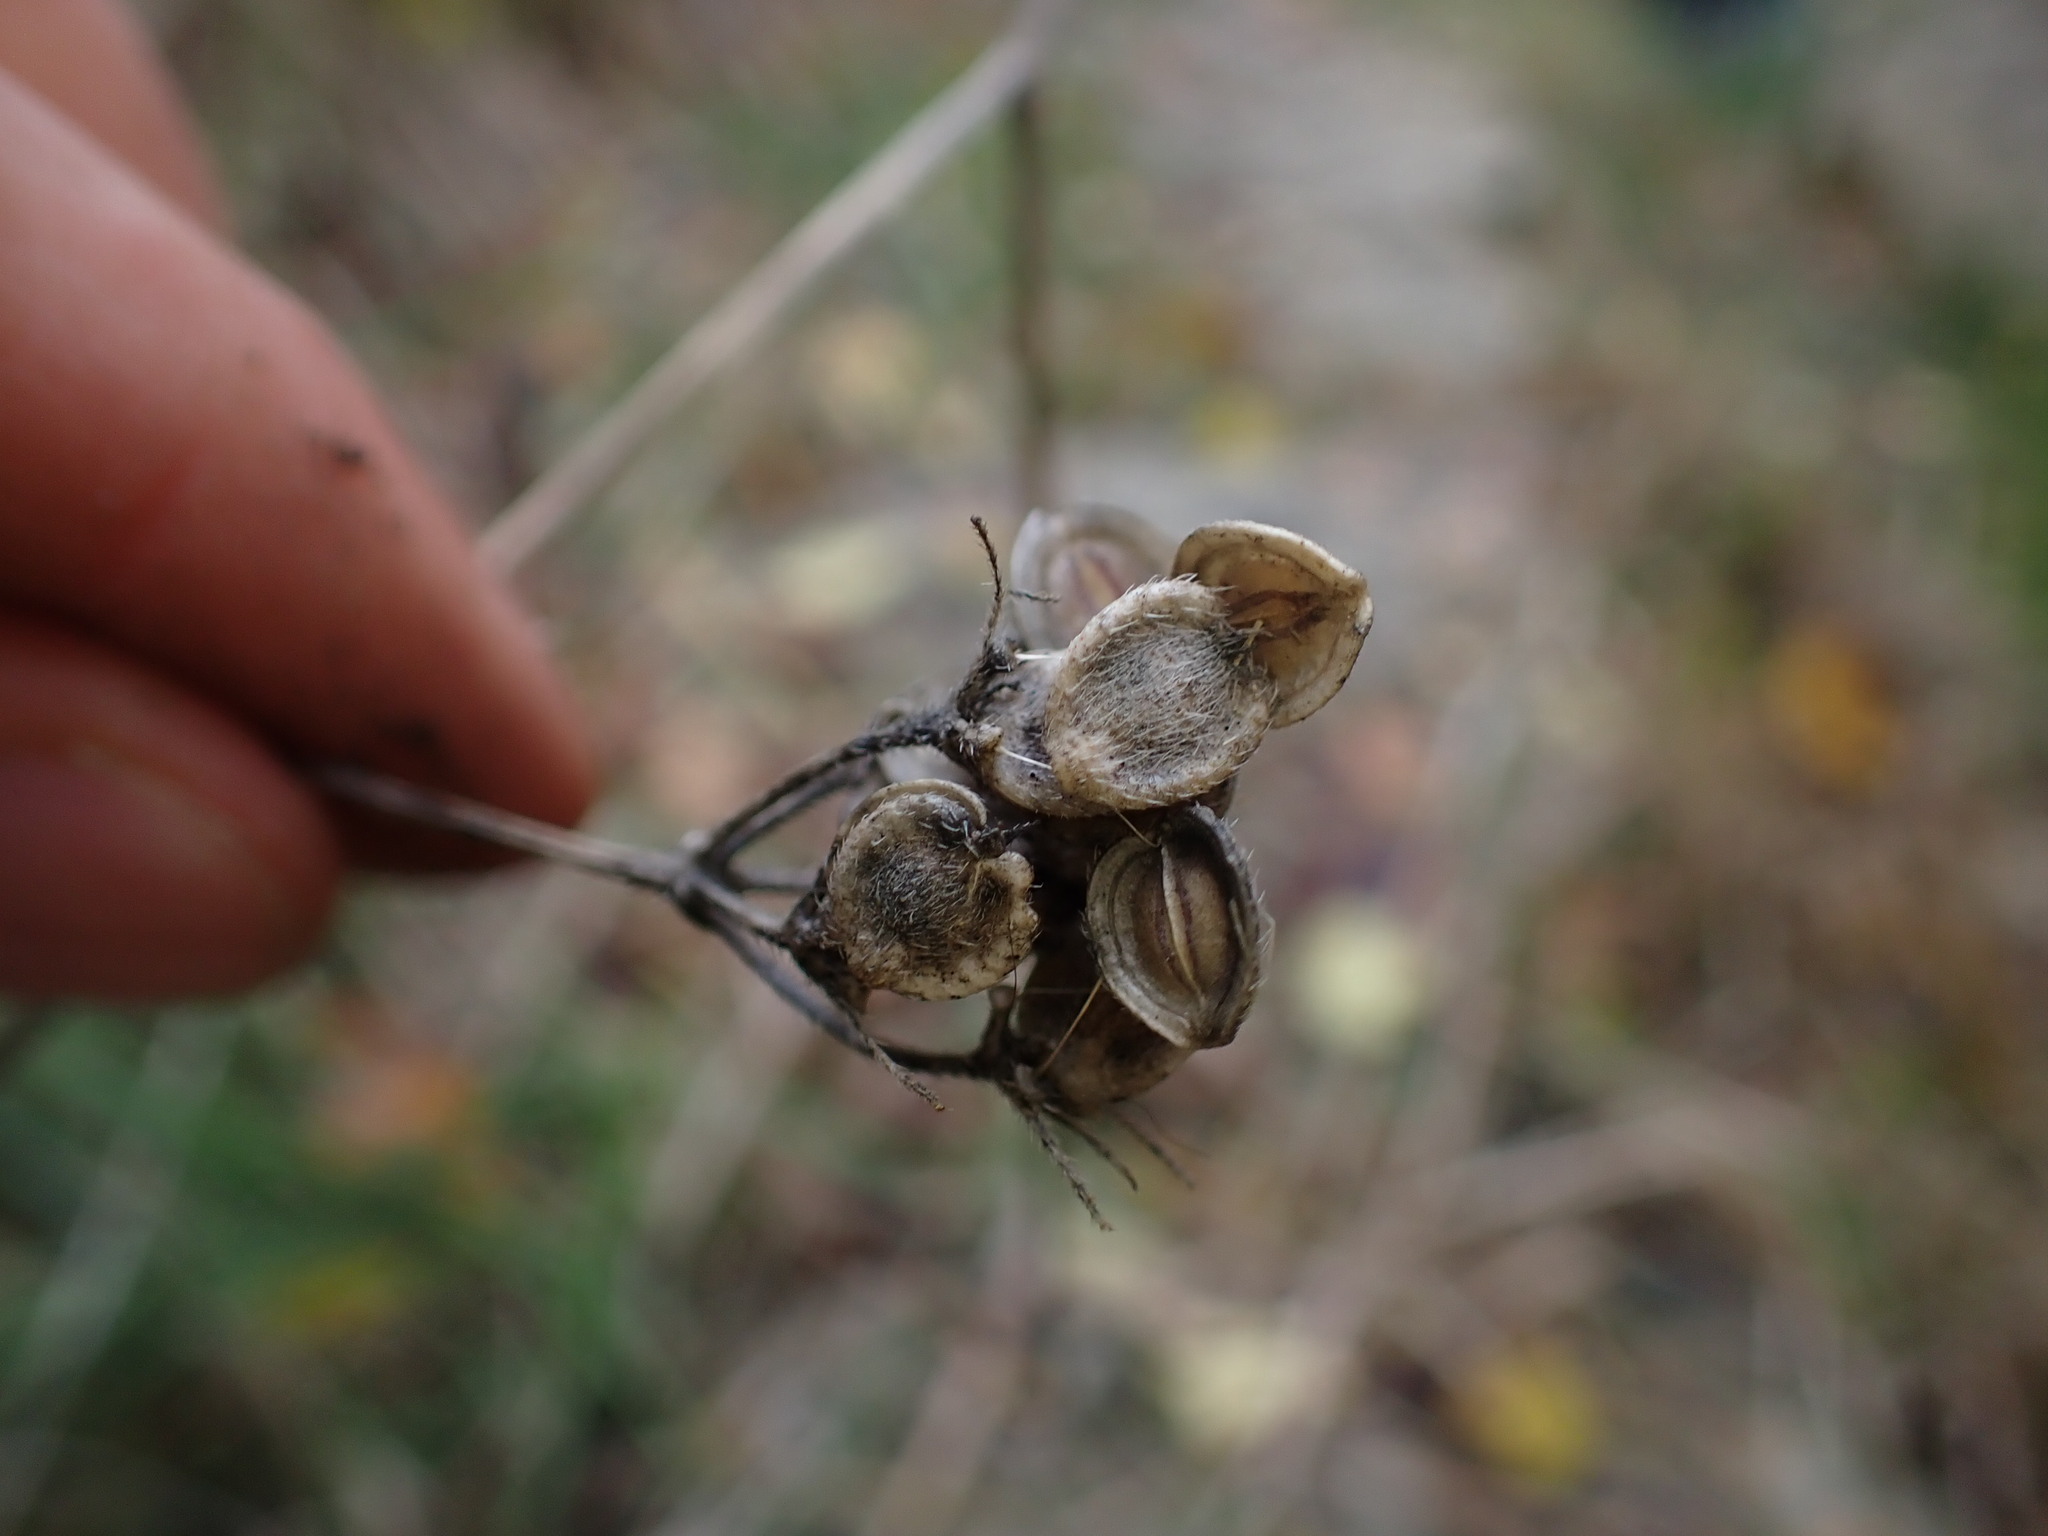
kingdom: Plantae
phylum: Tracheophyta
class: Magnoliopsida
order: Apiales
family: Apiaceae
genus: Tordylium
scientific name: Tordylium maximum
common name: Hartwort
